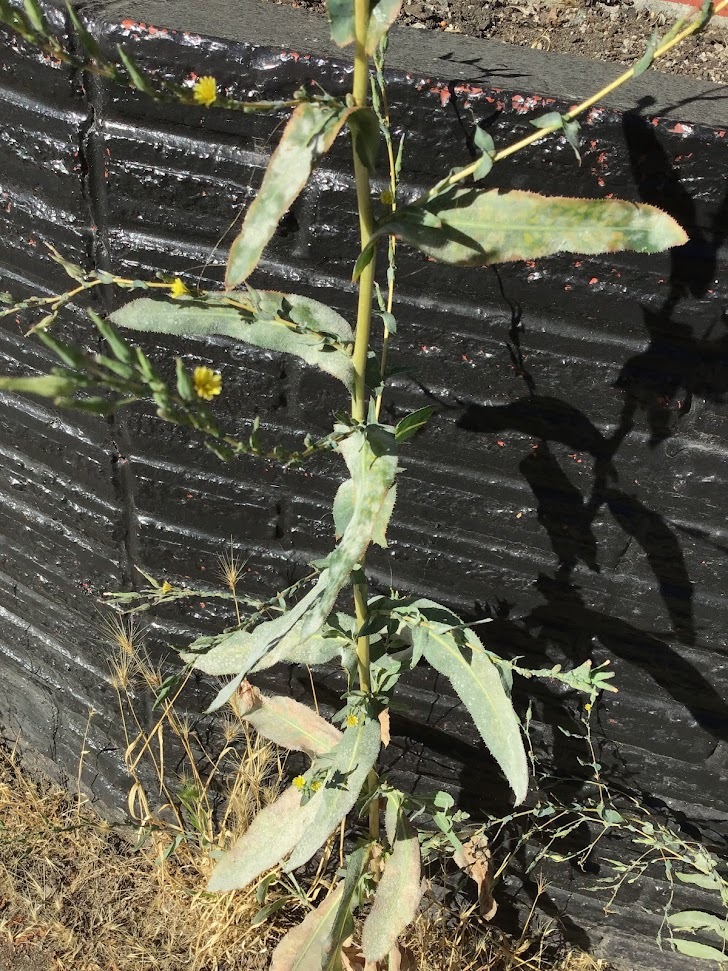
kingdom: Plantae
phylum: Tracheophyta
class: Magnoliopsida
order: Asterales
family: Asteraceae
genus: Lactuca
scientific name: Lactuca serriola
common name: Prickly lettuce
